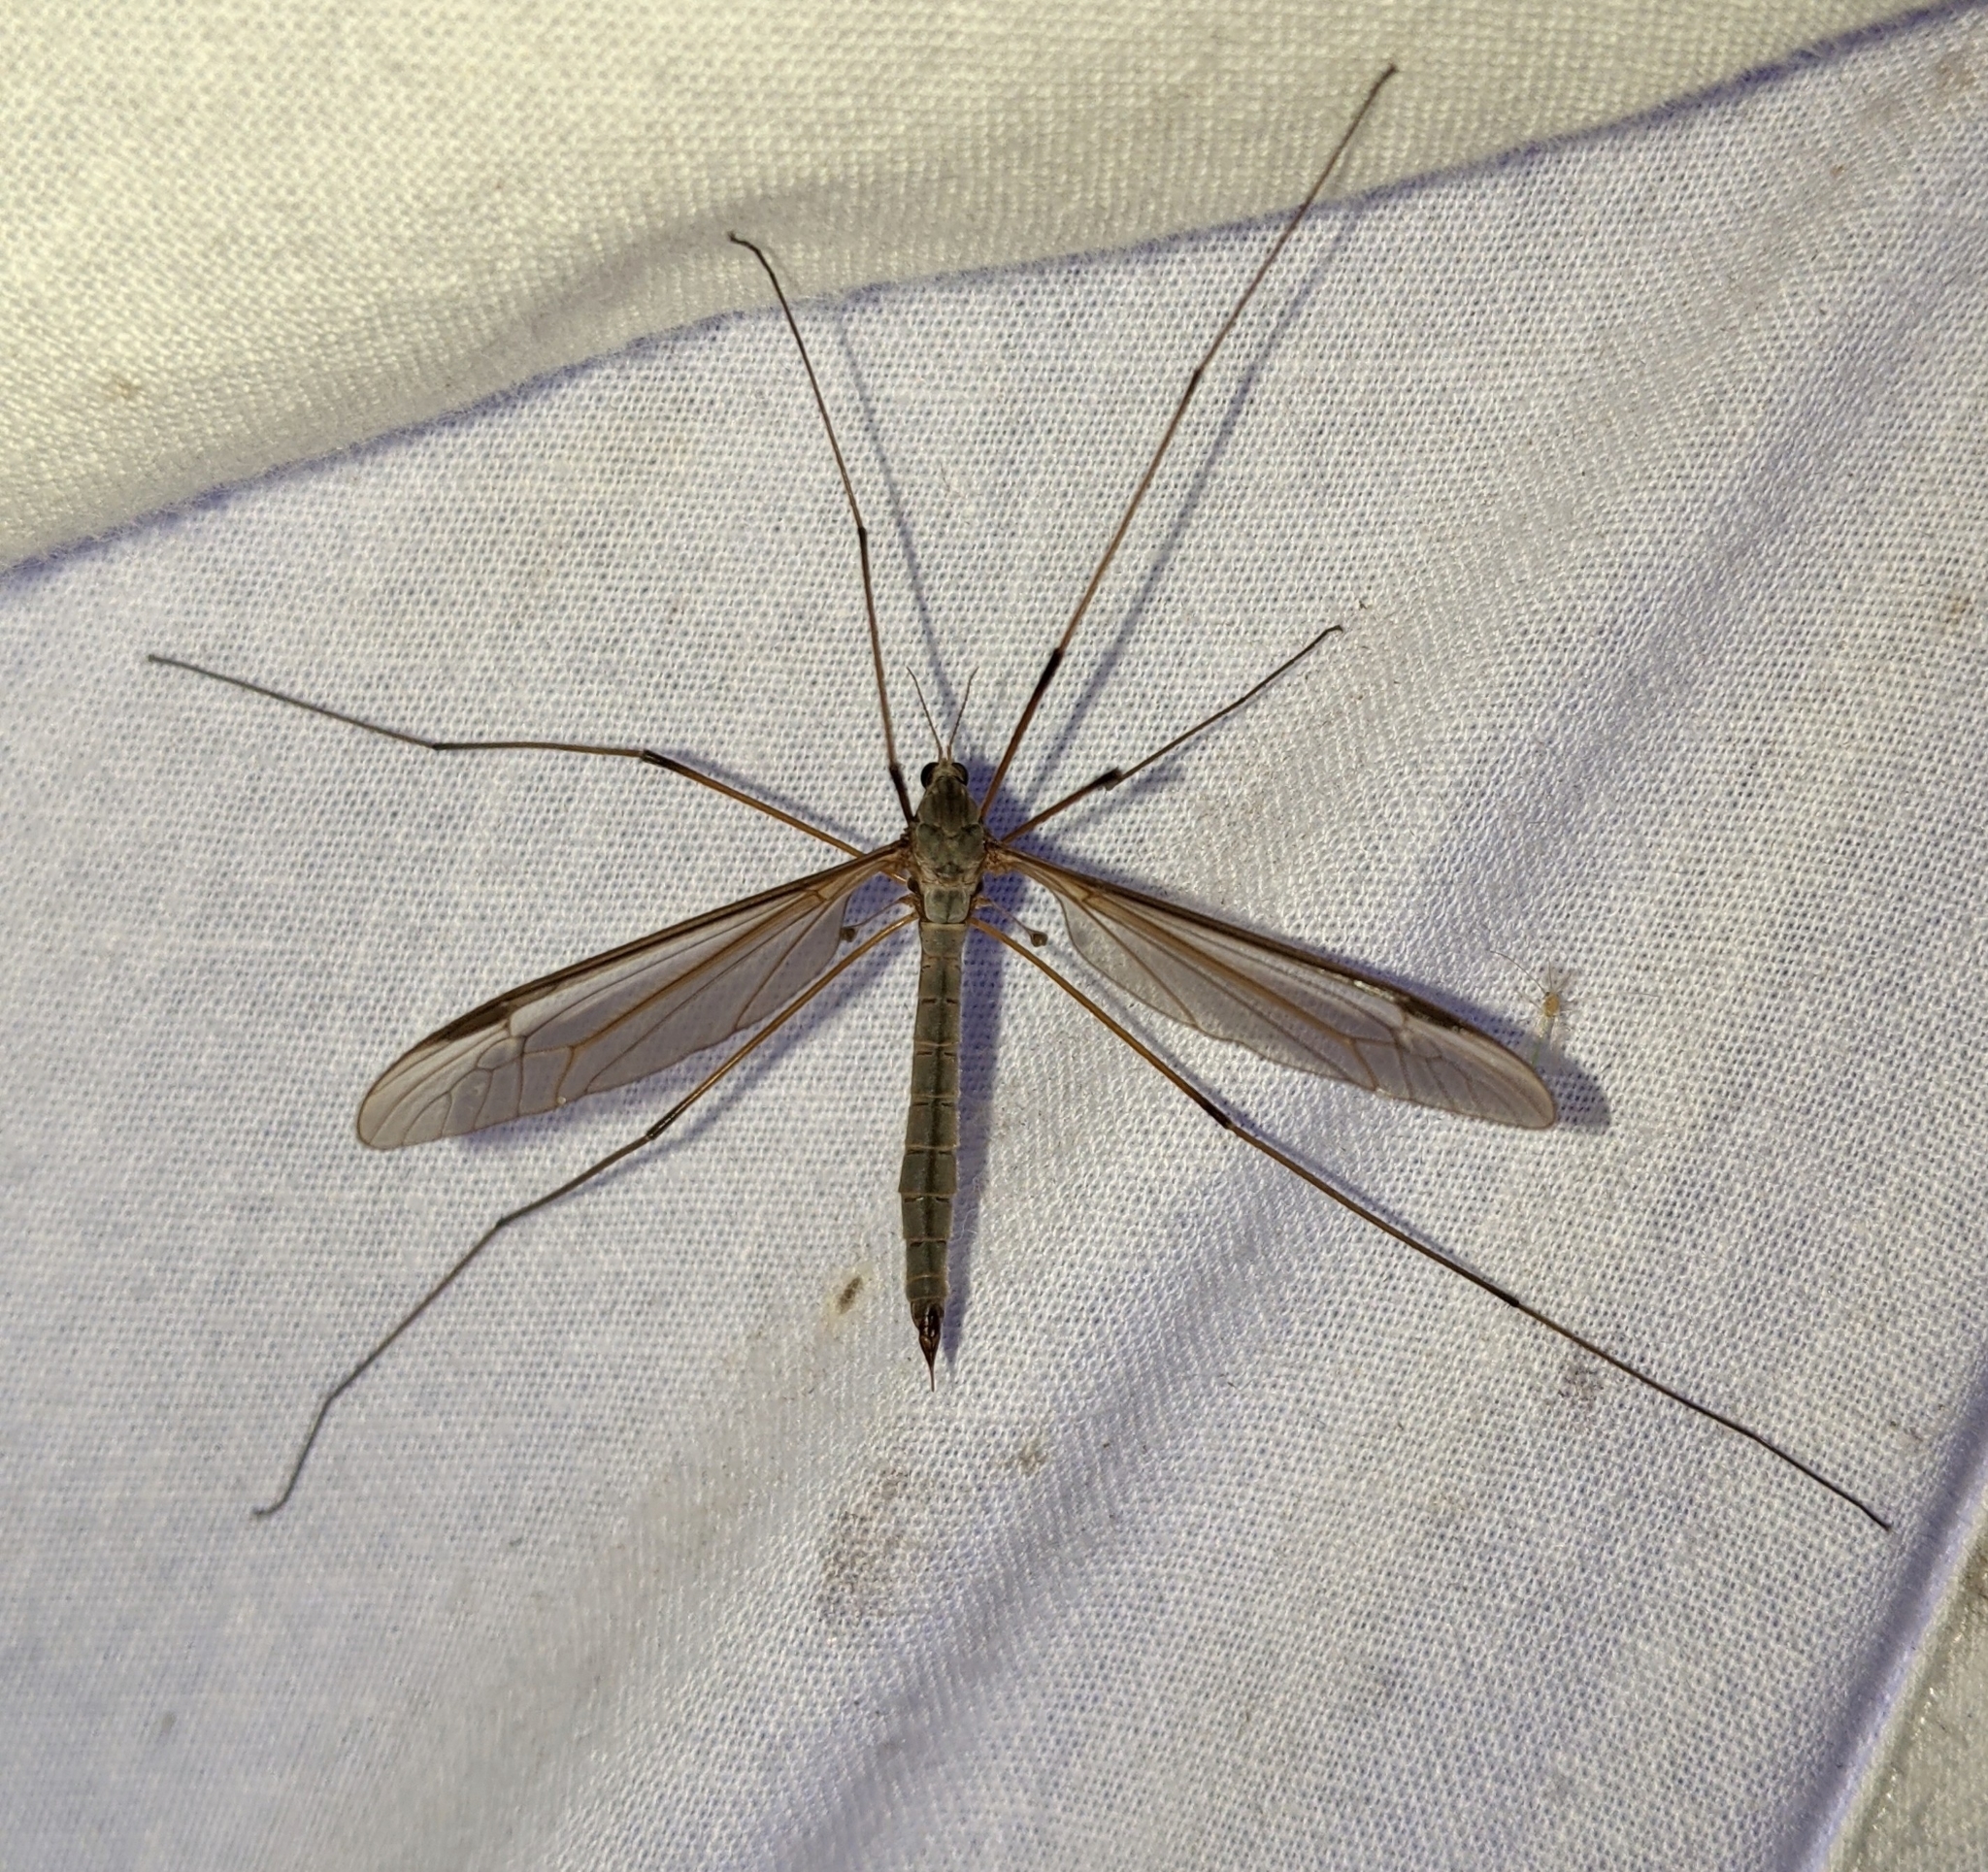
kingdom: Animalia
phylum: Arthropoda
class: Insecta
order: Diptera
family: Tipulidae
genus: Tipula
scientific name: Tipula oleracea
